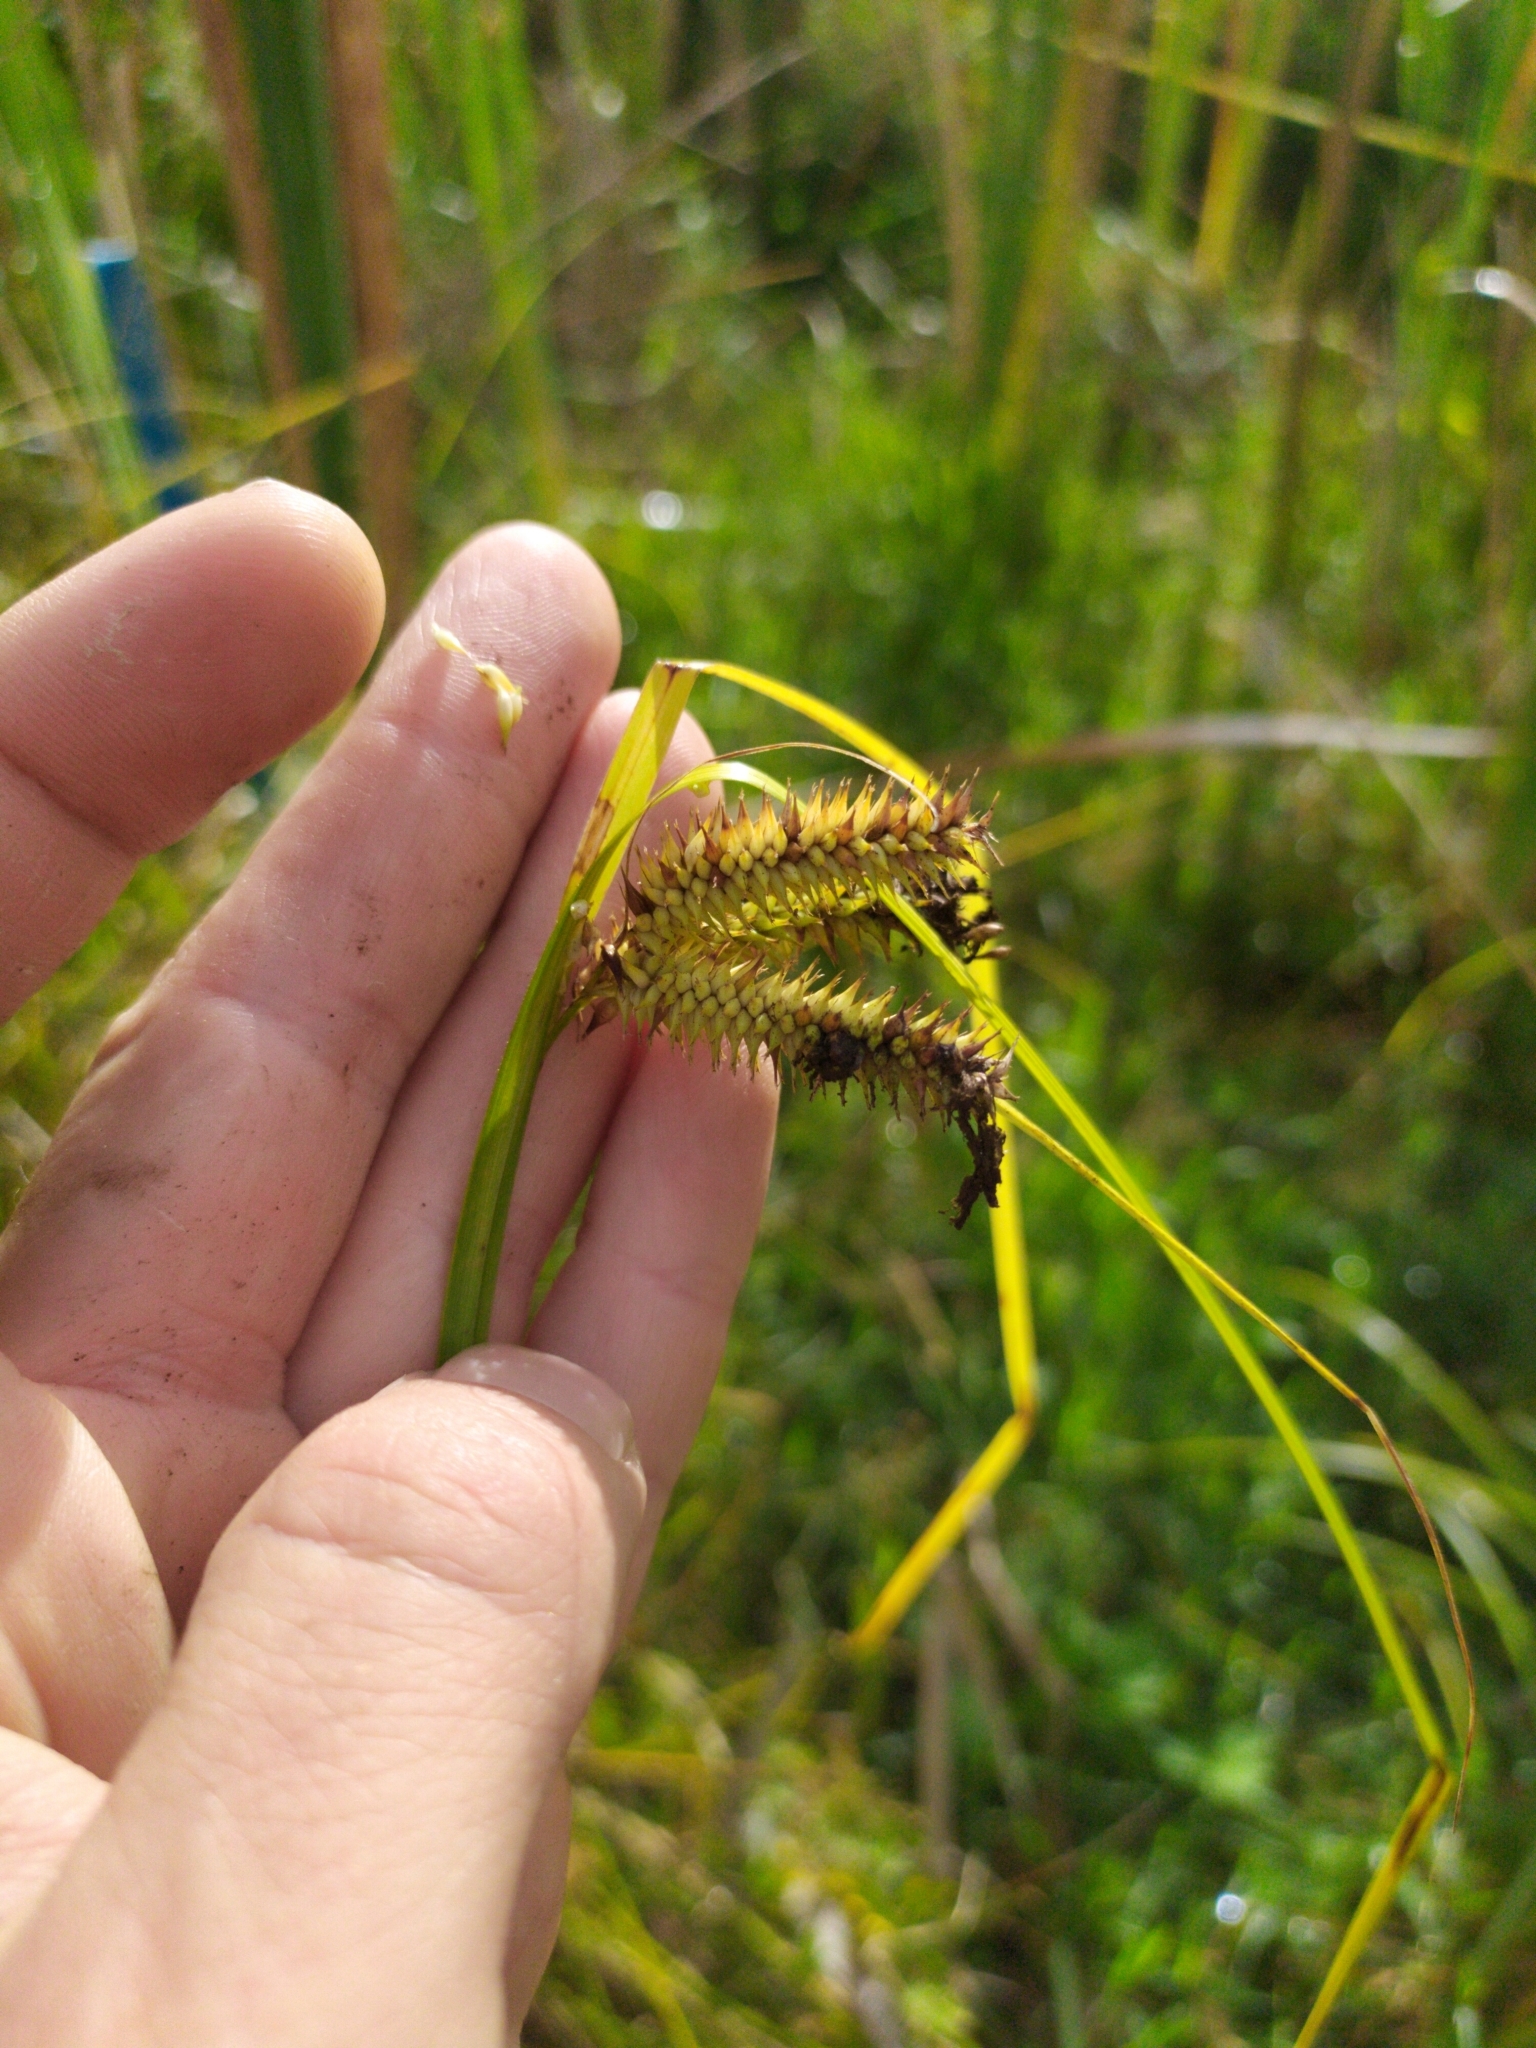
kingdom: Plantae
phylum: Tracheophyta
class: Liliopsida
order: Poales
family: Cyperaceae
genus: Carex
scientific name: Carex maorica
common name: Maori sedge
